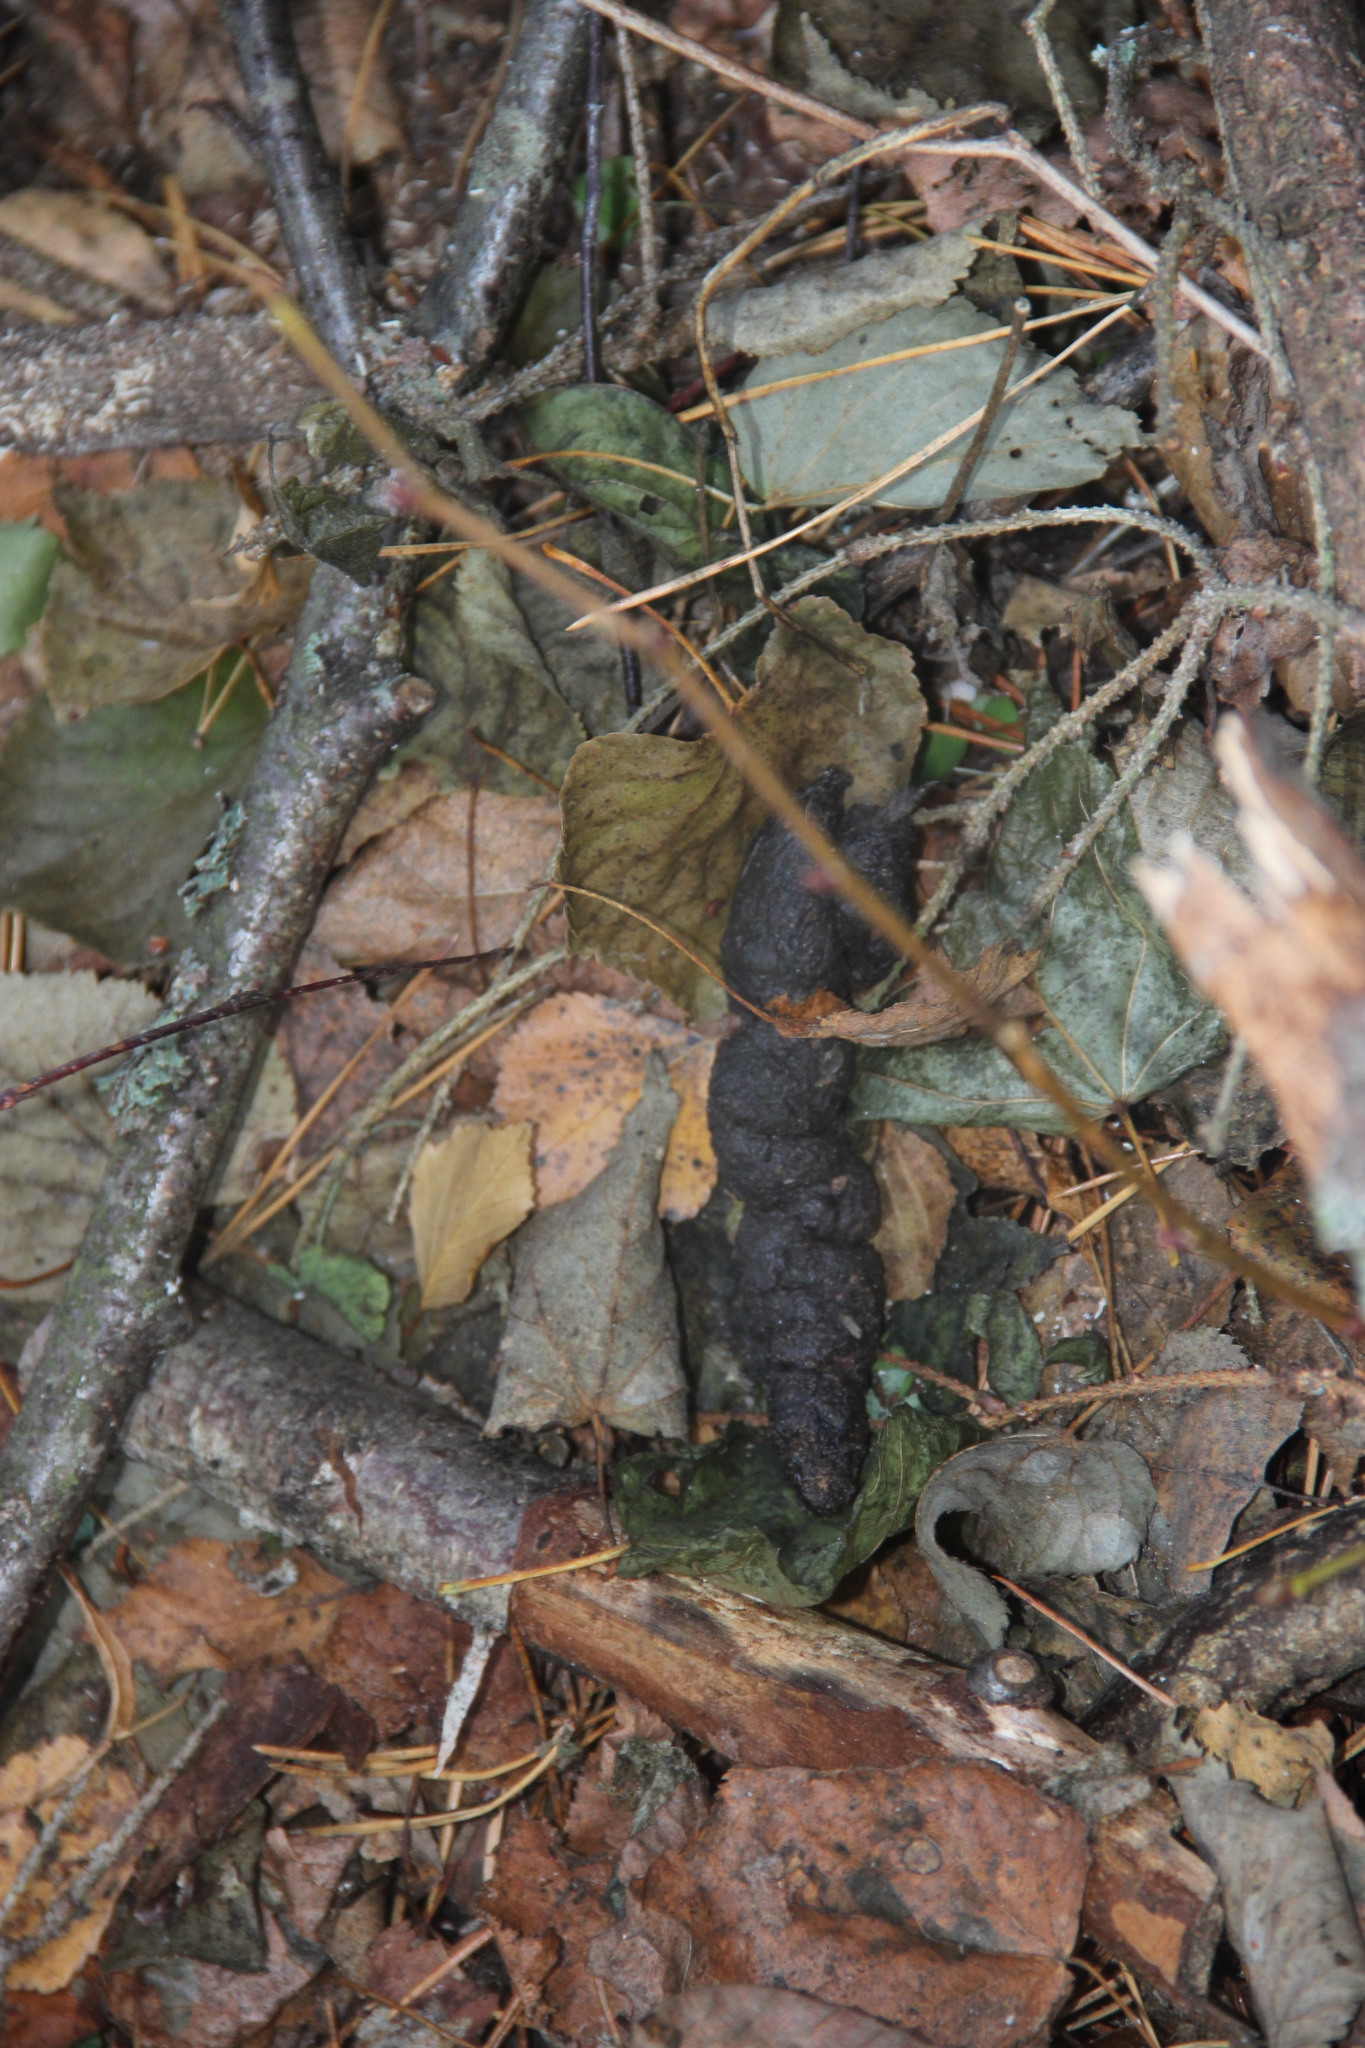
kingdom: Animalia
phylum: Chordata
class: Mammalia
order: Carnivora
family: Canidae
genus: Canis
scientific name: Canis lupus
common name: Gray wolf
